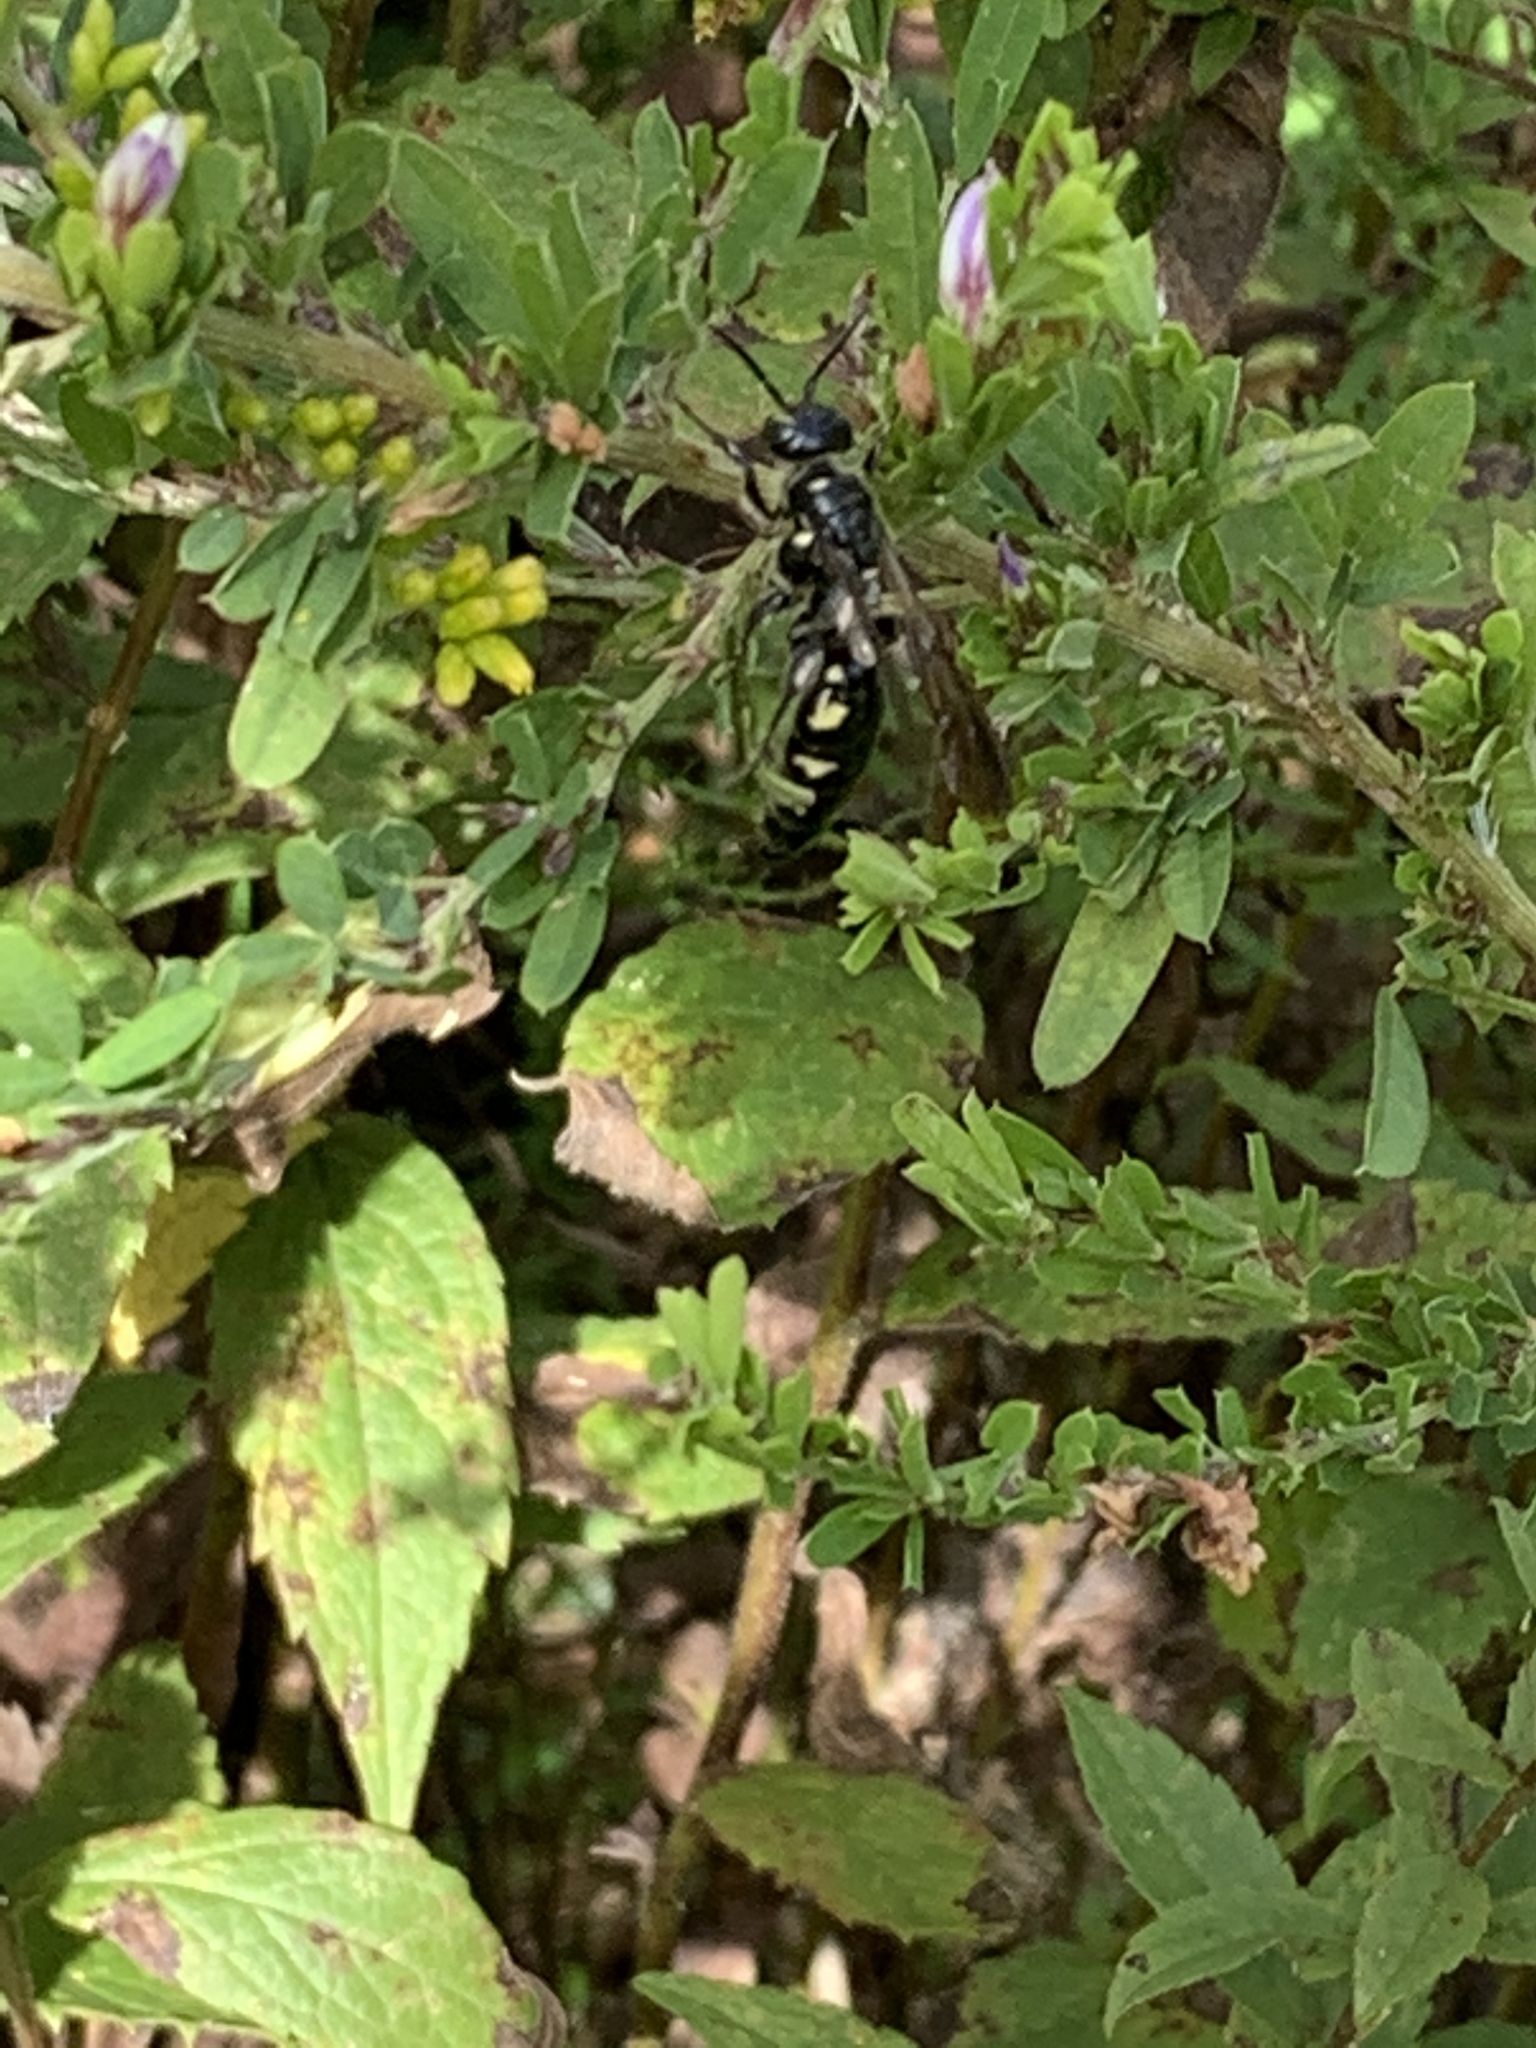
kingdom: Animalia
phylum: Arthropoda
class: Insecta
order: Hymenoptera
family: Tiphiidae
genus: Myzinum
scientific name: Myzinum obscurum
